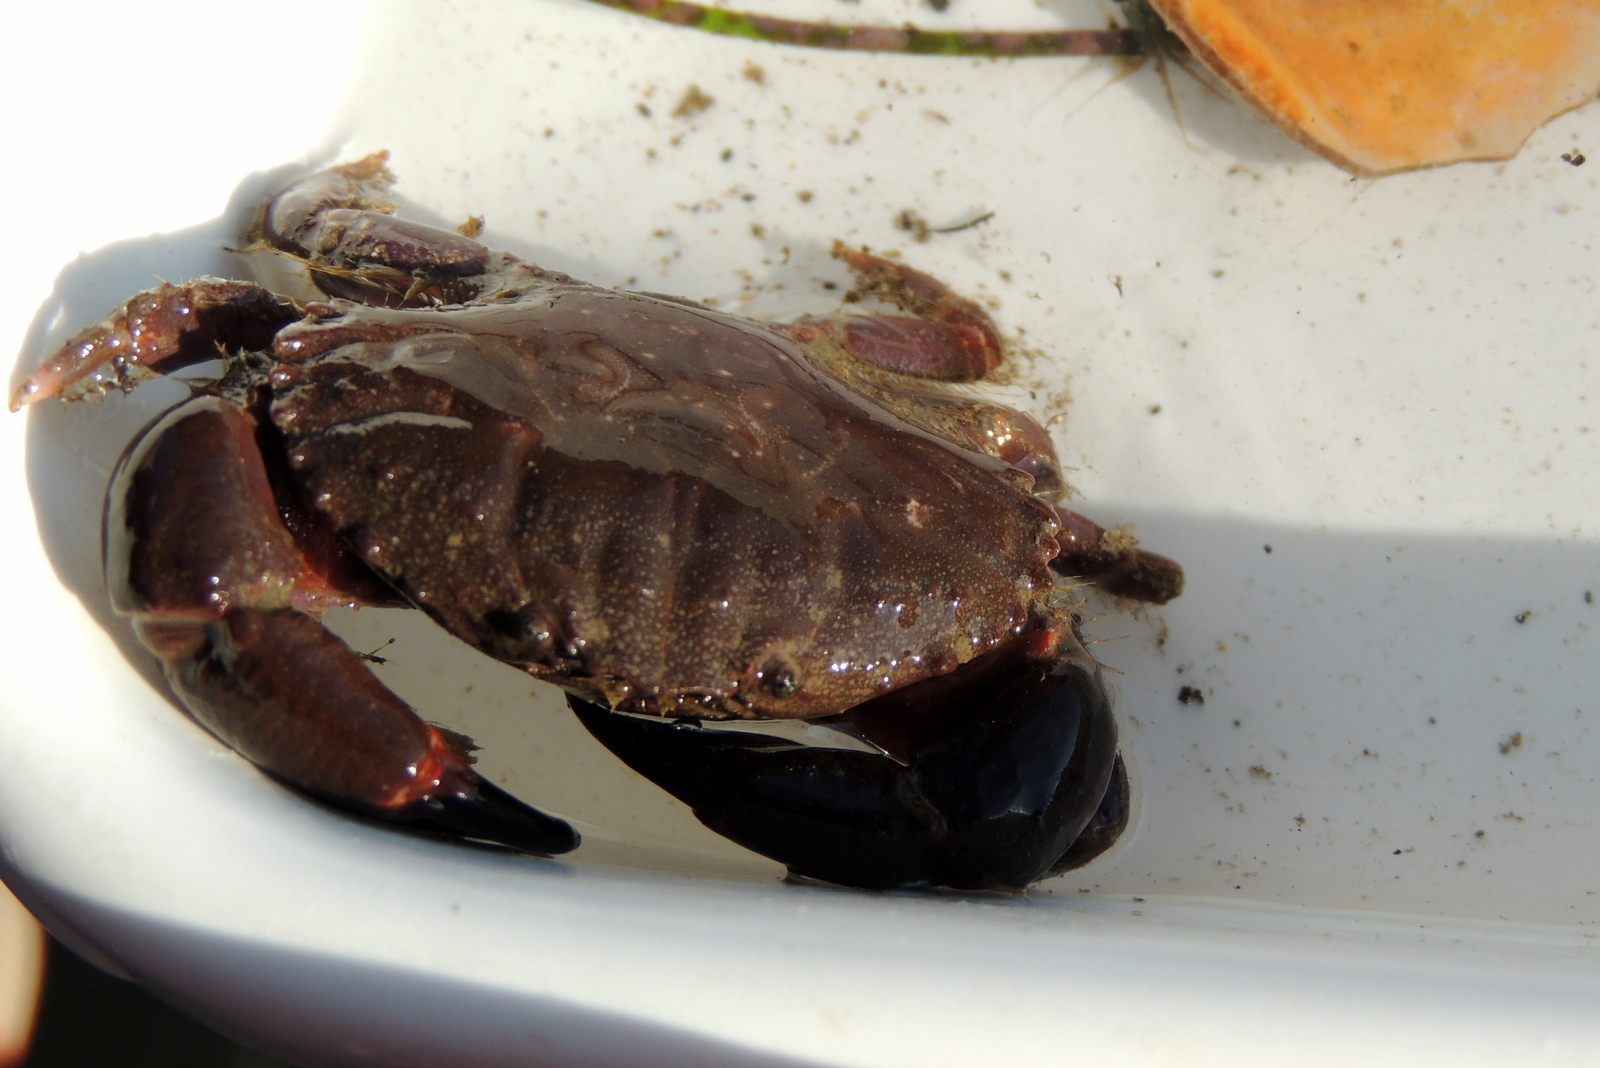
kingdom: Animalia
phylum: Arthropoda
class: Malacostraca
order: Decapoda
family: Xanthidae
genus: Cycloxanthops
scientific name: Cycloxanthops novemdentatus
